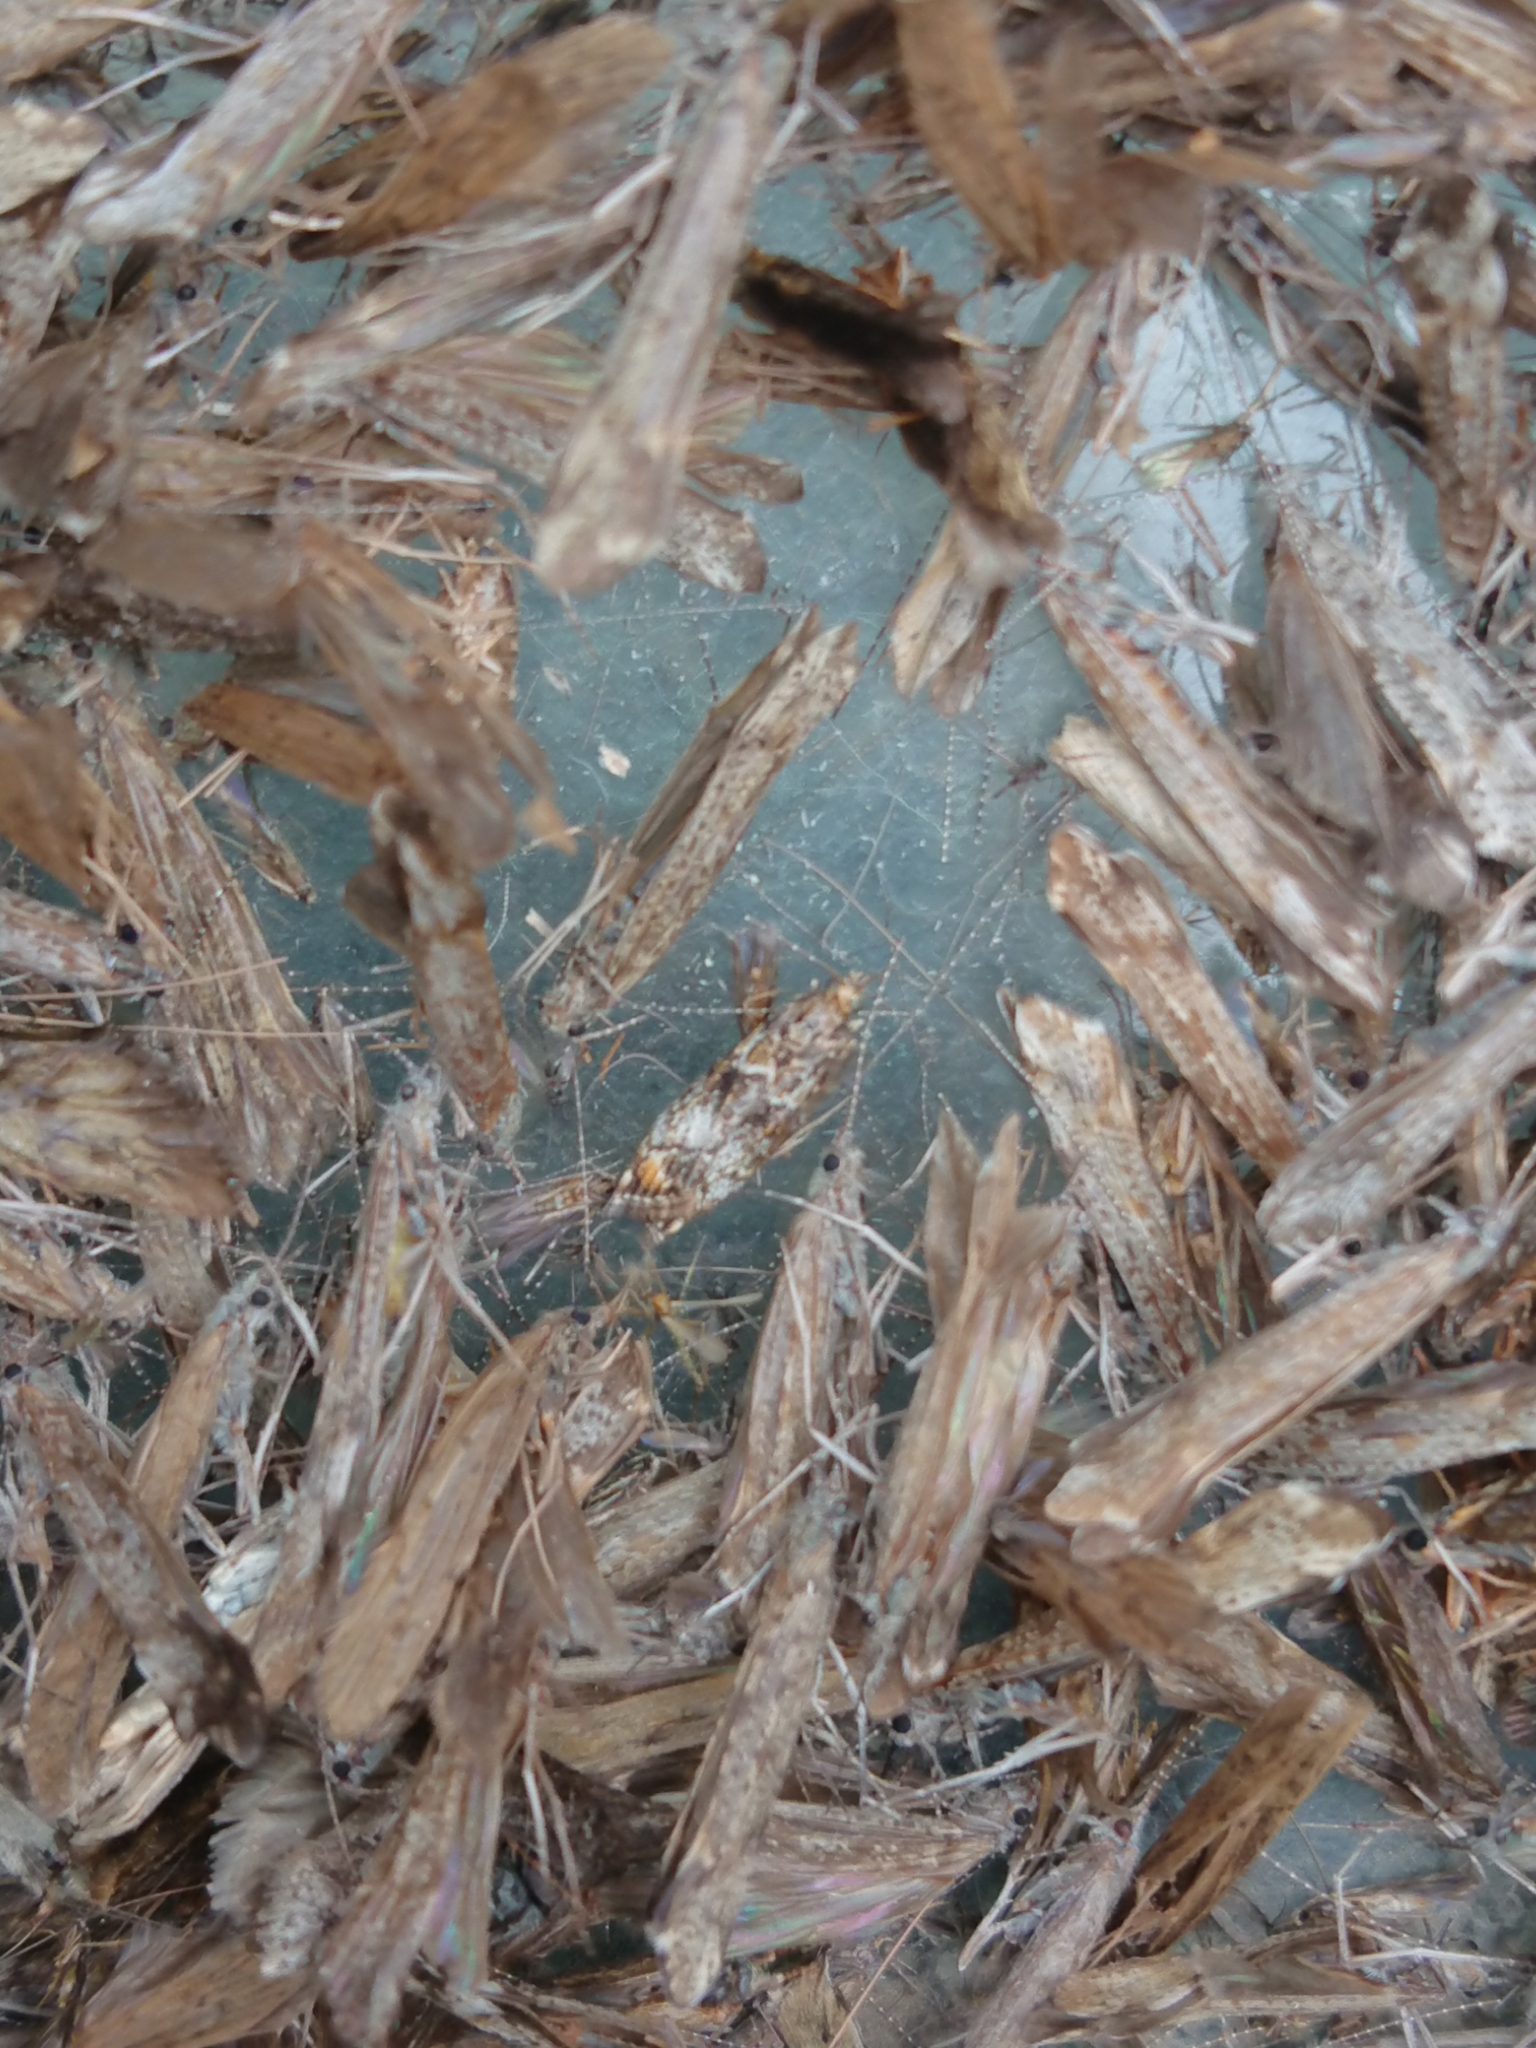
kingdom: Animalia
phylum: Arthropoda
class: Insecta
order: Lepidoptera
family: Crambidae
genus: Eudonia
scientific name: Eudonia minualis
